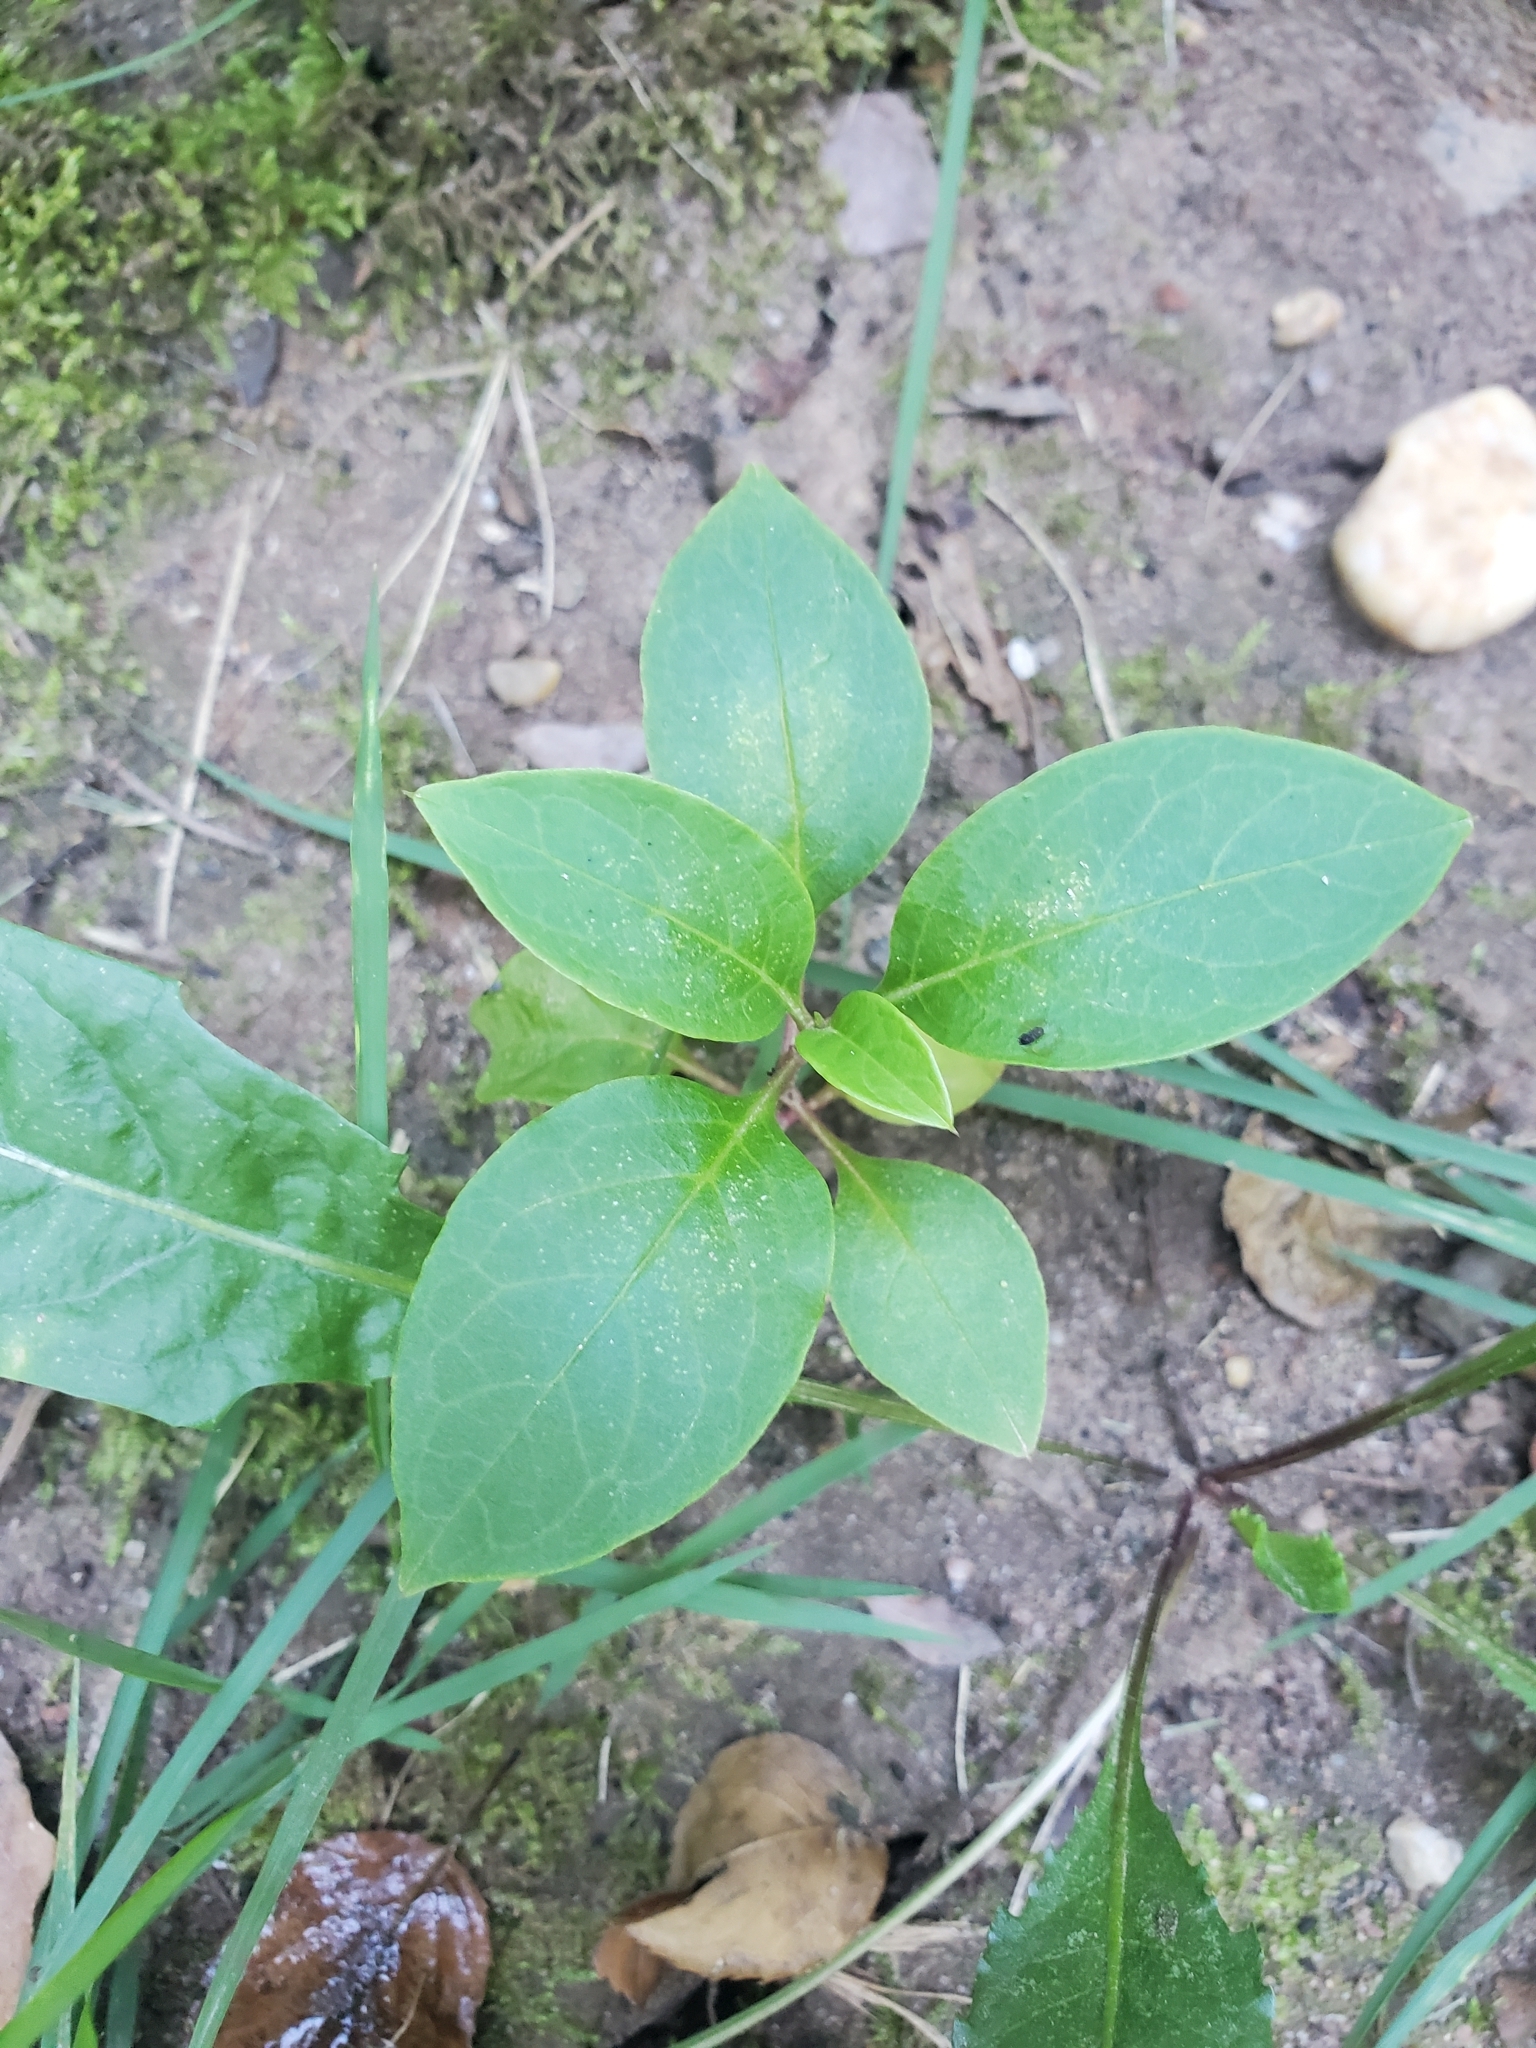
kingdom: Plantae
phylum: Tracheophyta
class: Magnoliopsida
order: Caryophyllales
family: Phytolaccaceae
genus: Phytolacca
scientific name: Phytolacca americana
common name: American pokeweed
